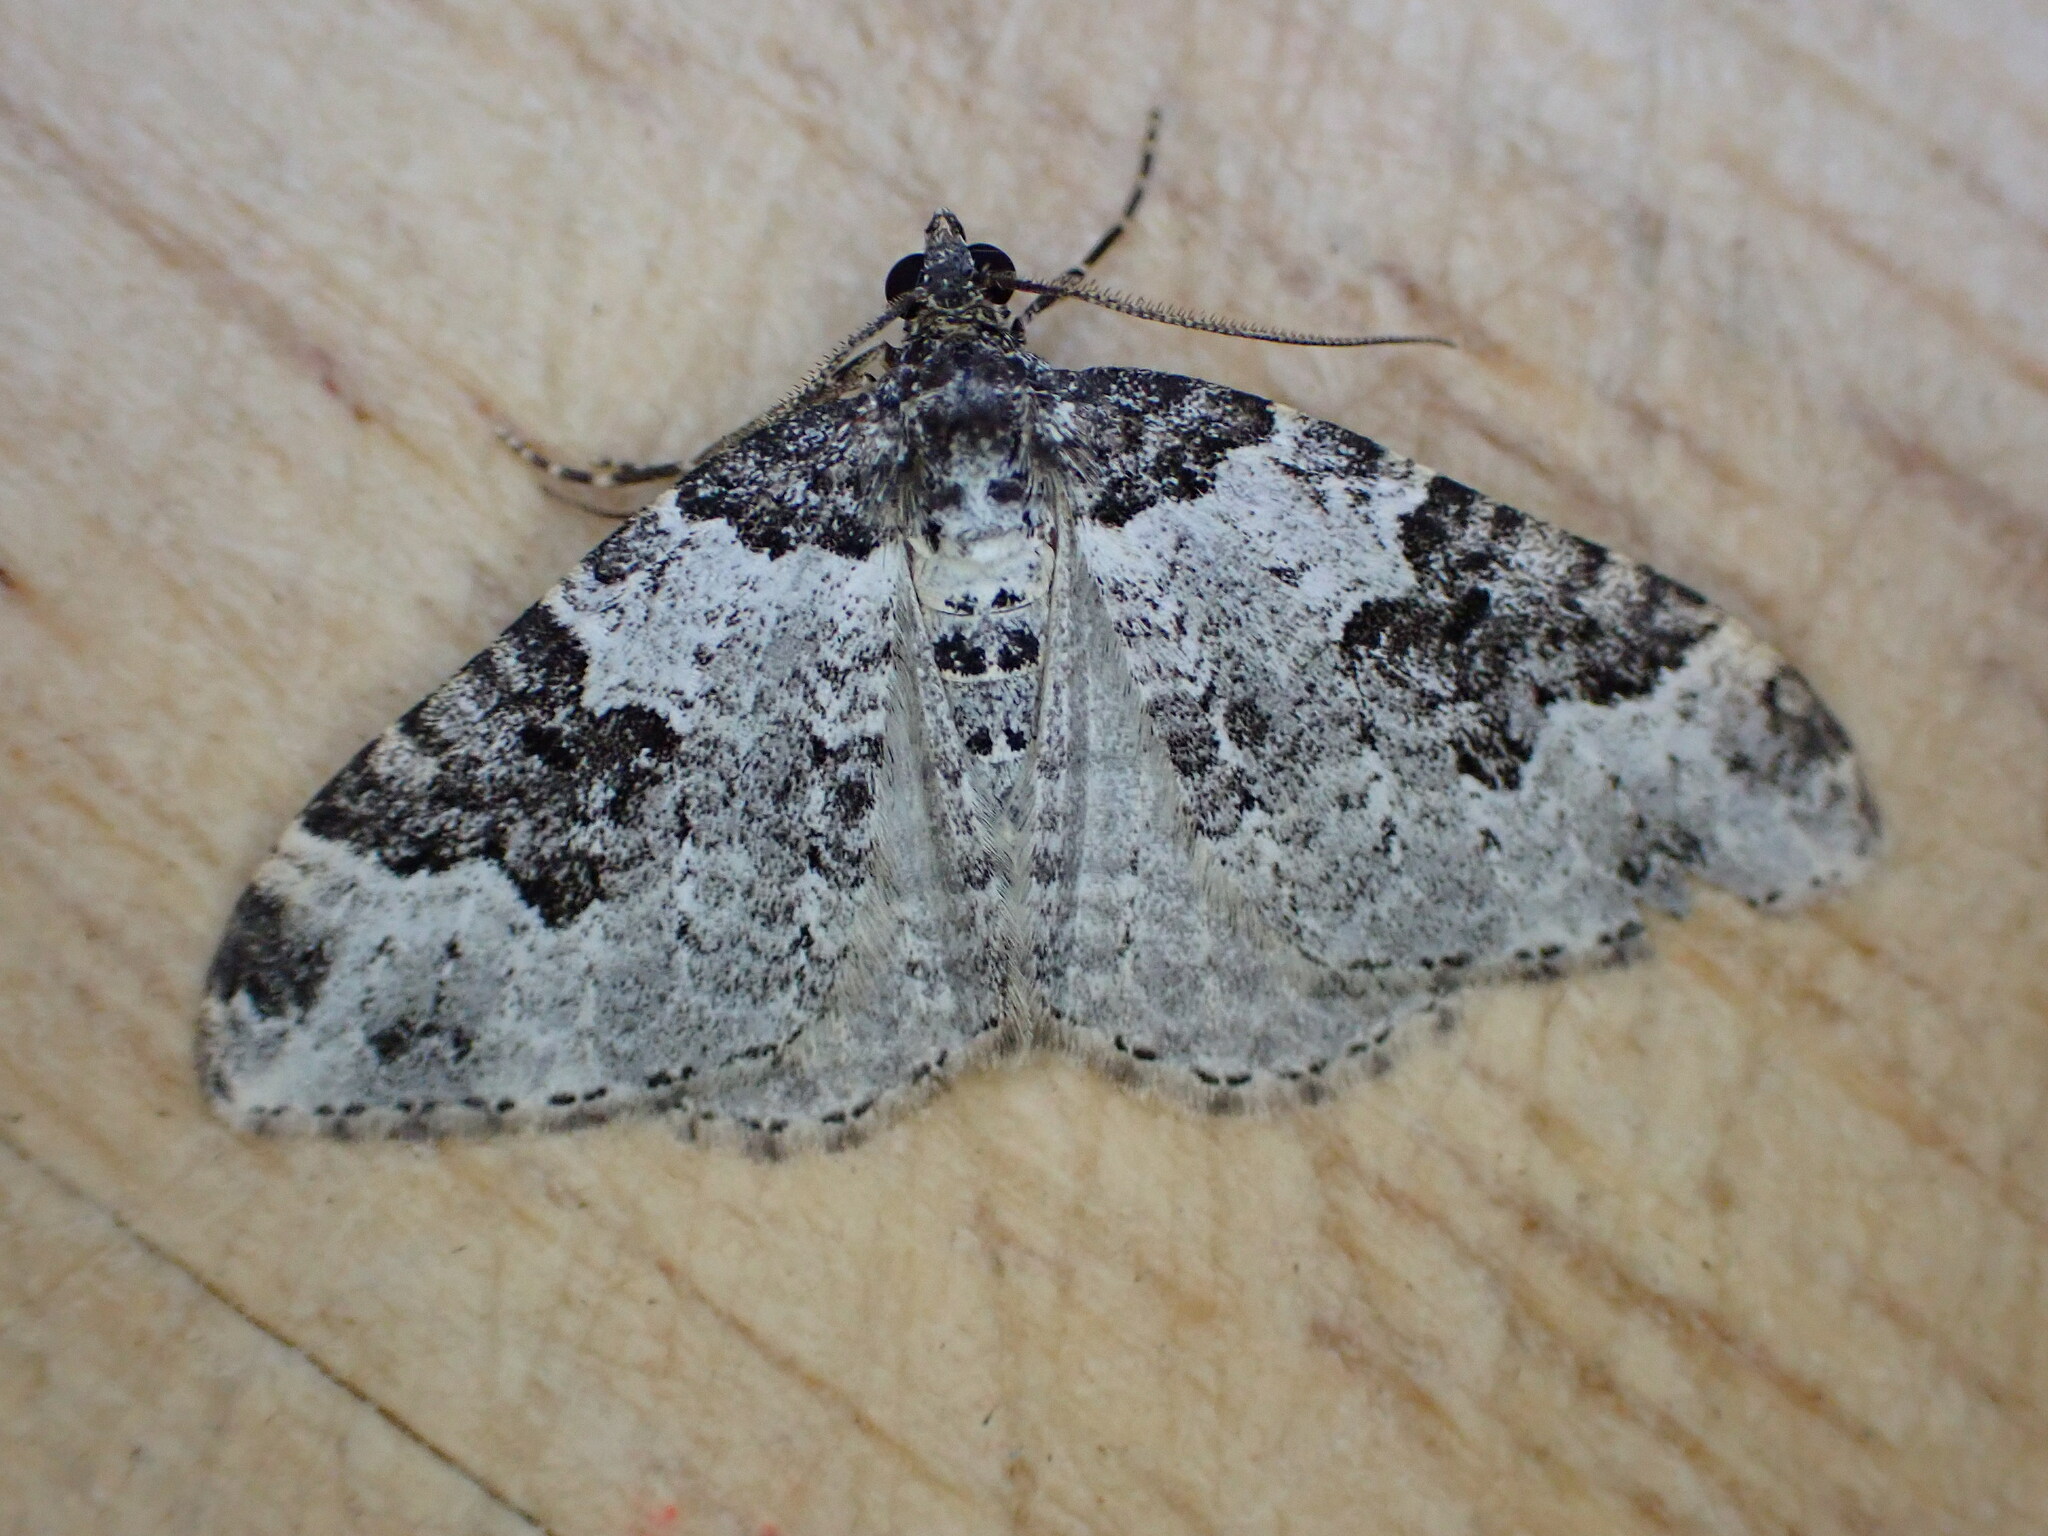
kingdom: Animalia
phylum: Arthropoda
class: Insecta
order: Lepidoptera
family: Geometridae
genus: Xanthorhoe
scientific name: Xanthorhoe fluctuata
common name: Garden carpet
